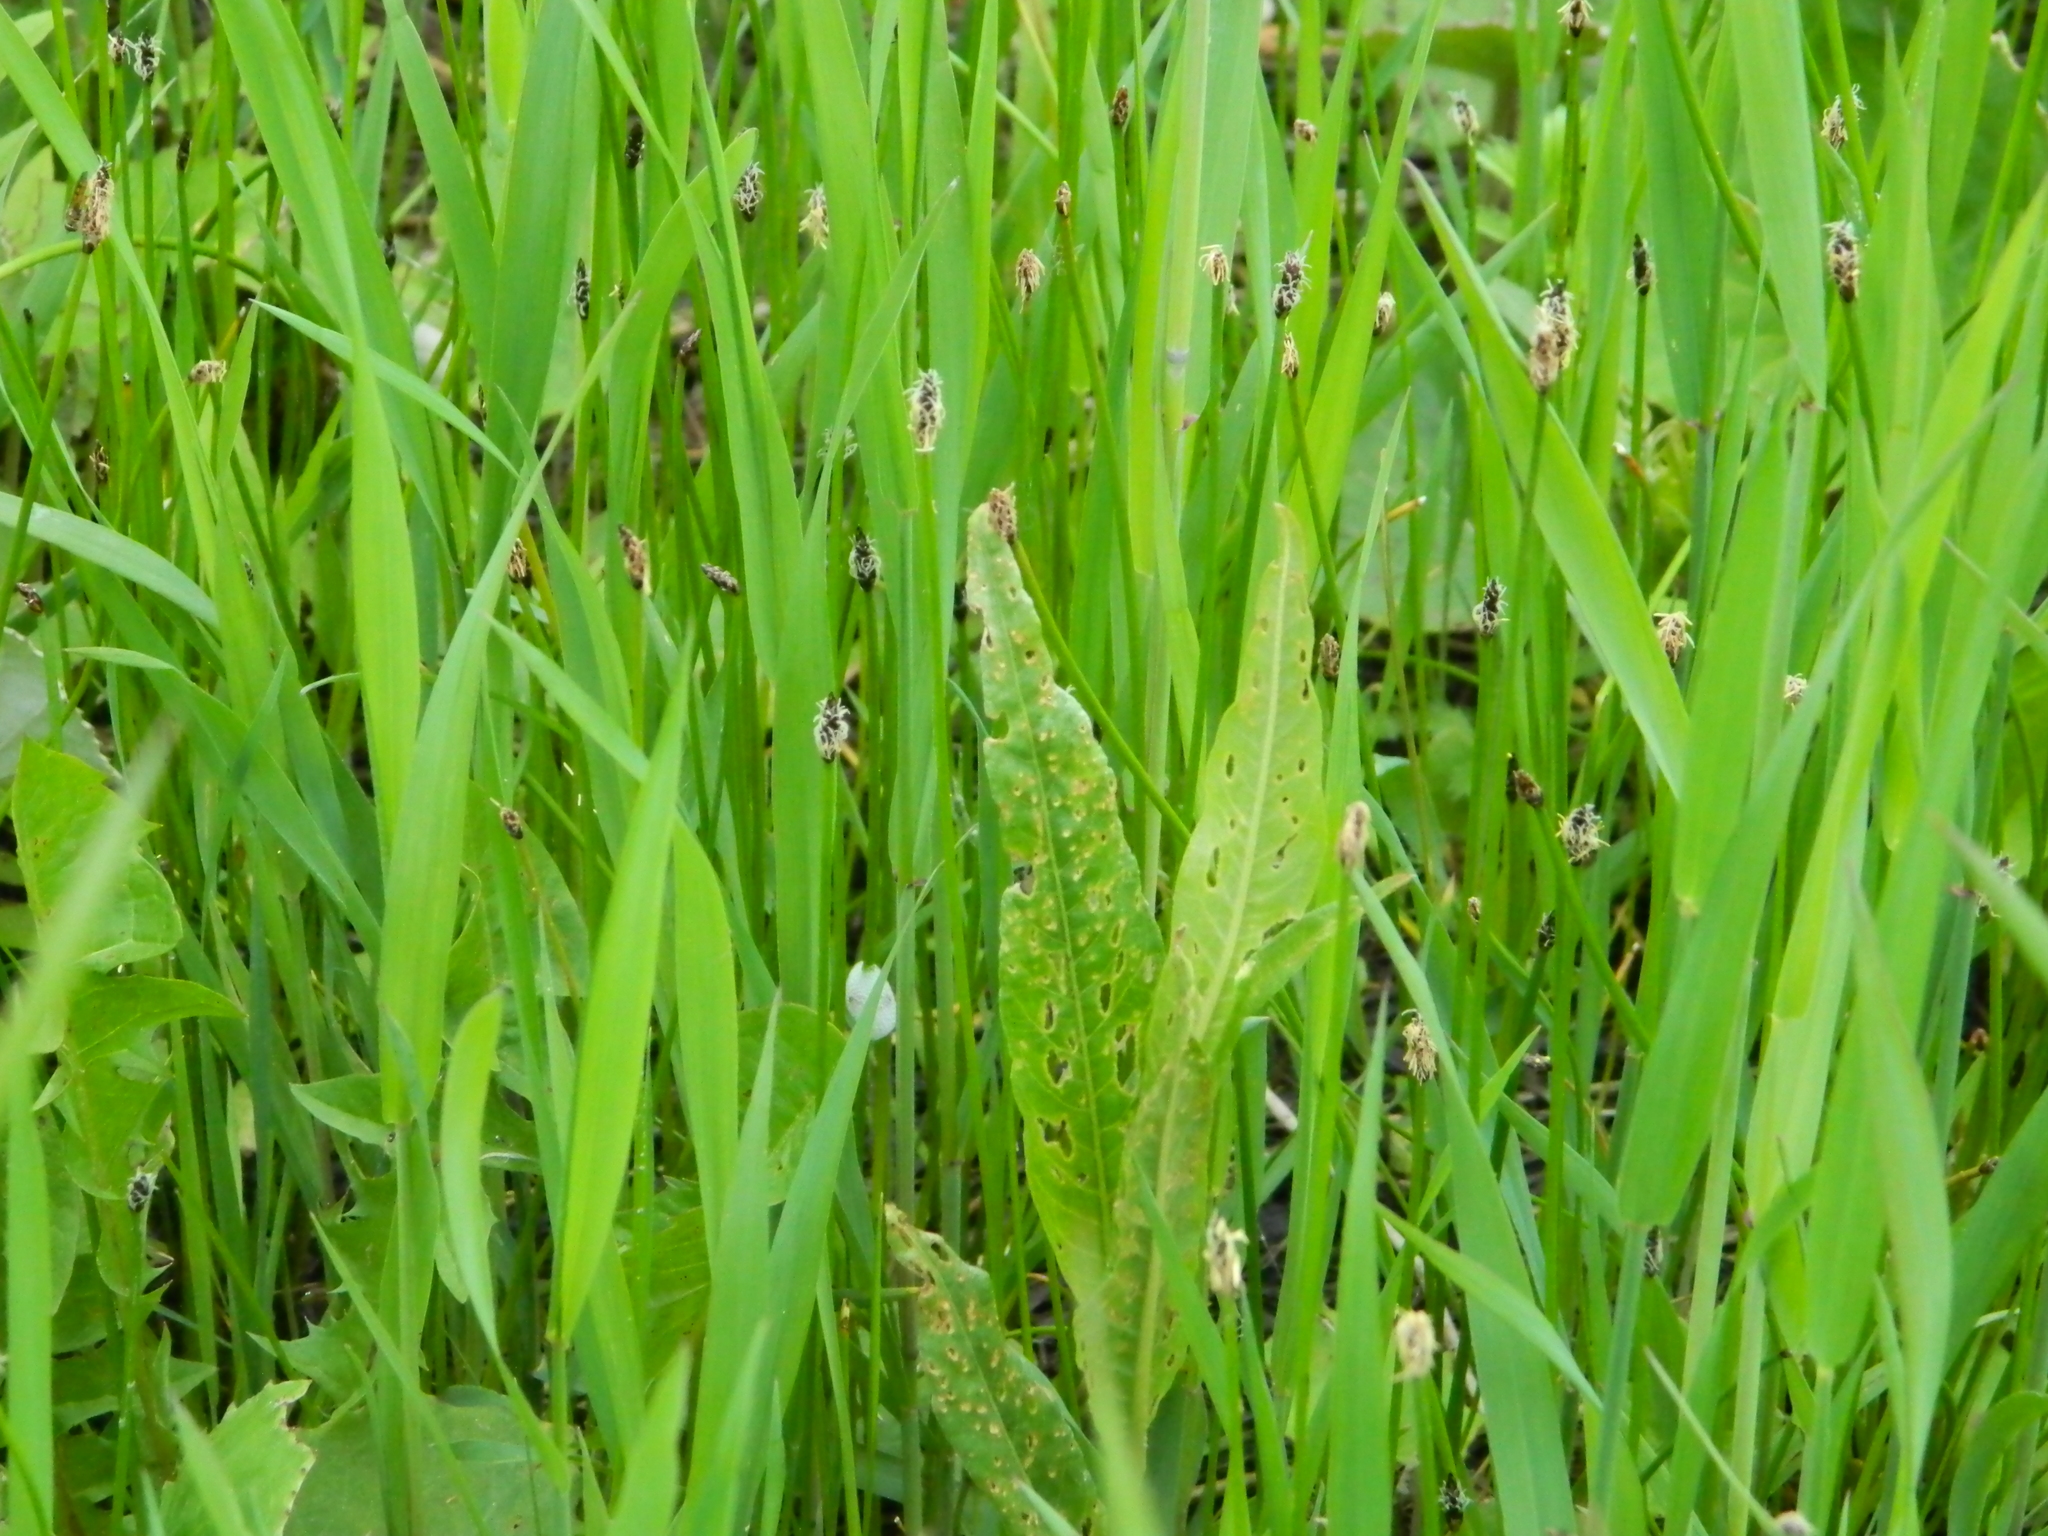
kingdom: Plantae
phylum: Tracheophyta
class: Magnoliopsida
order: Caryophyllales
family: Polygonaceae
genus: Rumex
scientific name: Rumex aquaticus
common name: Scottish dock
